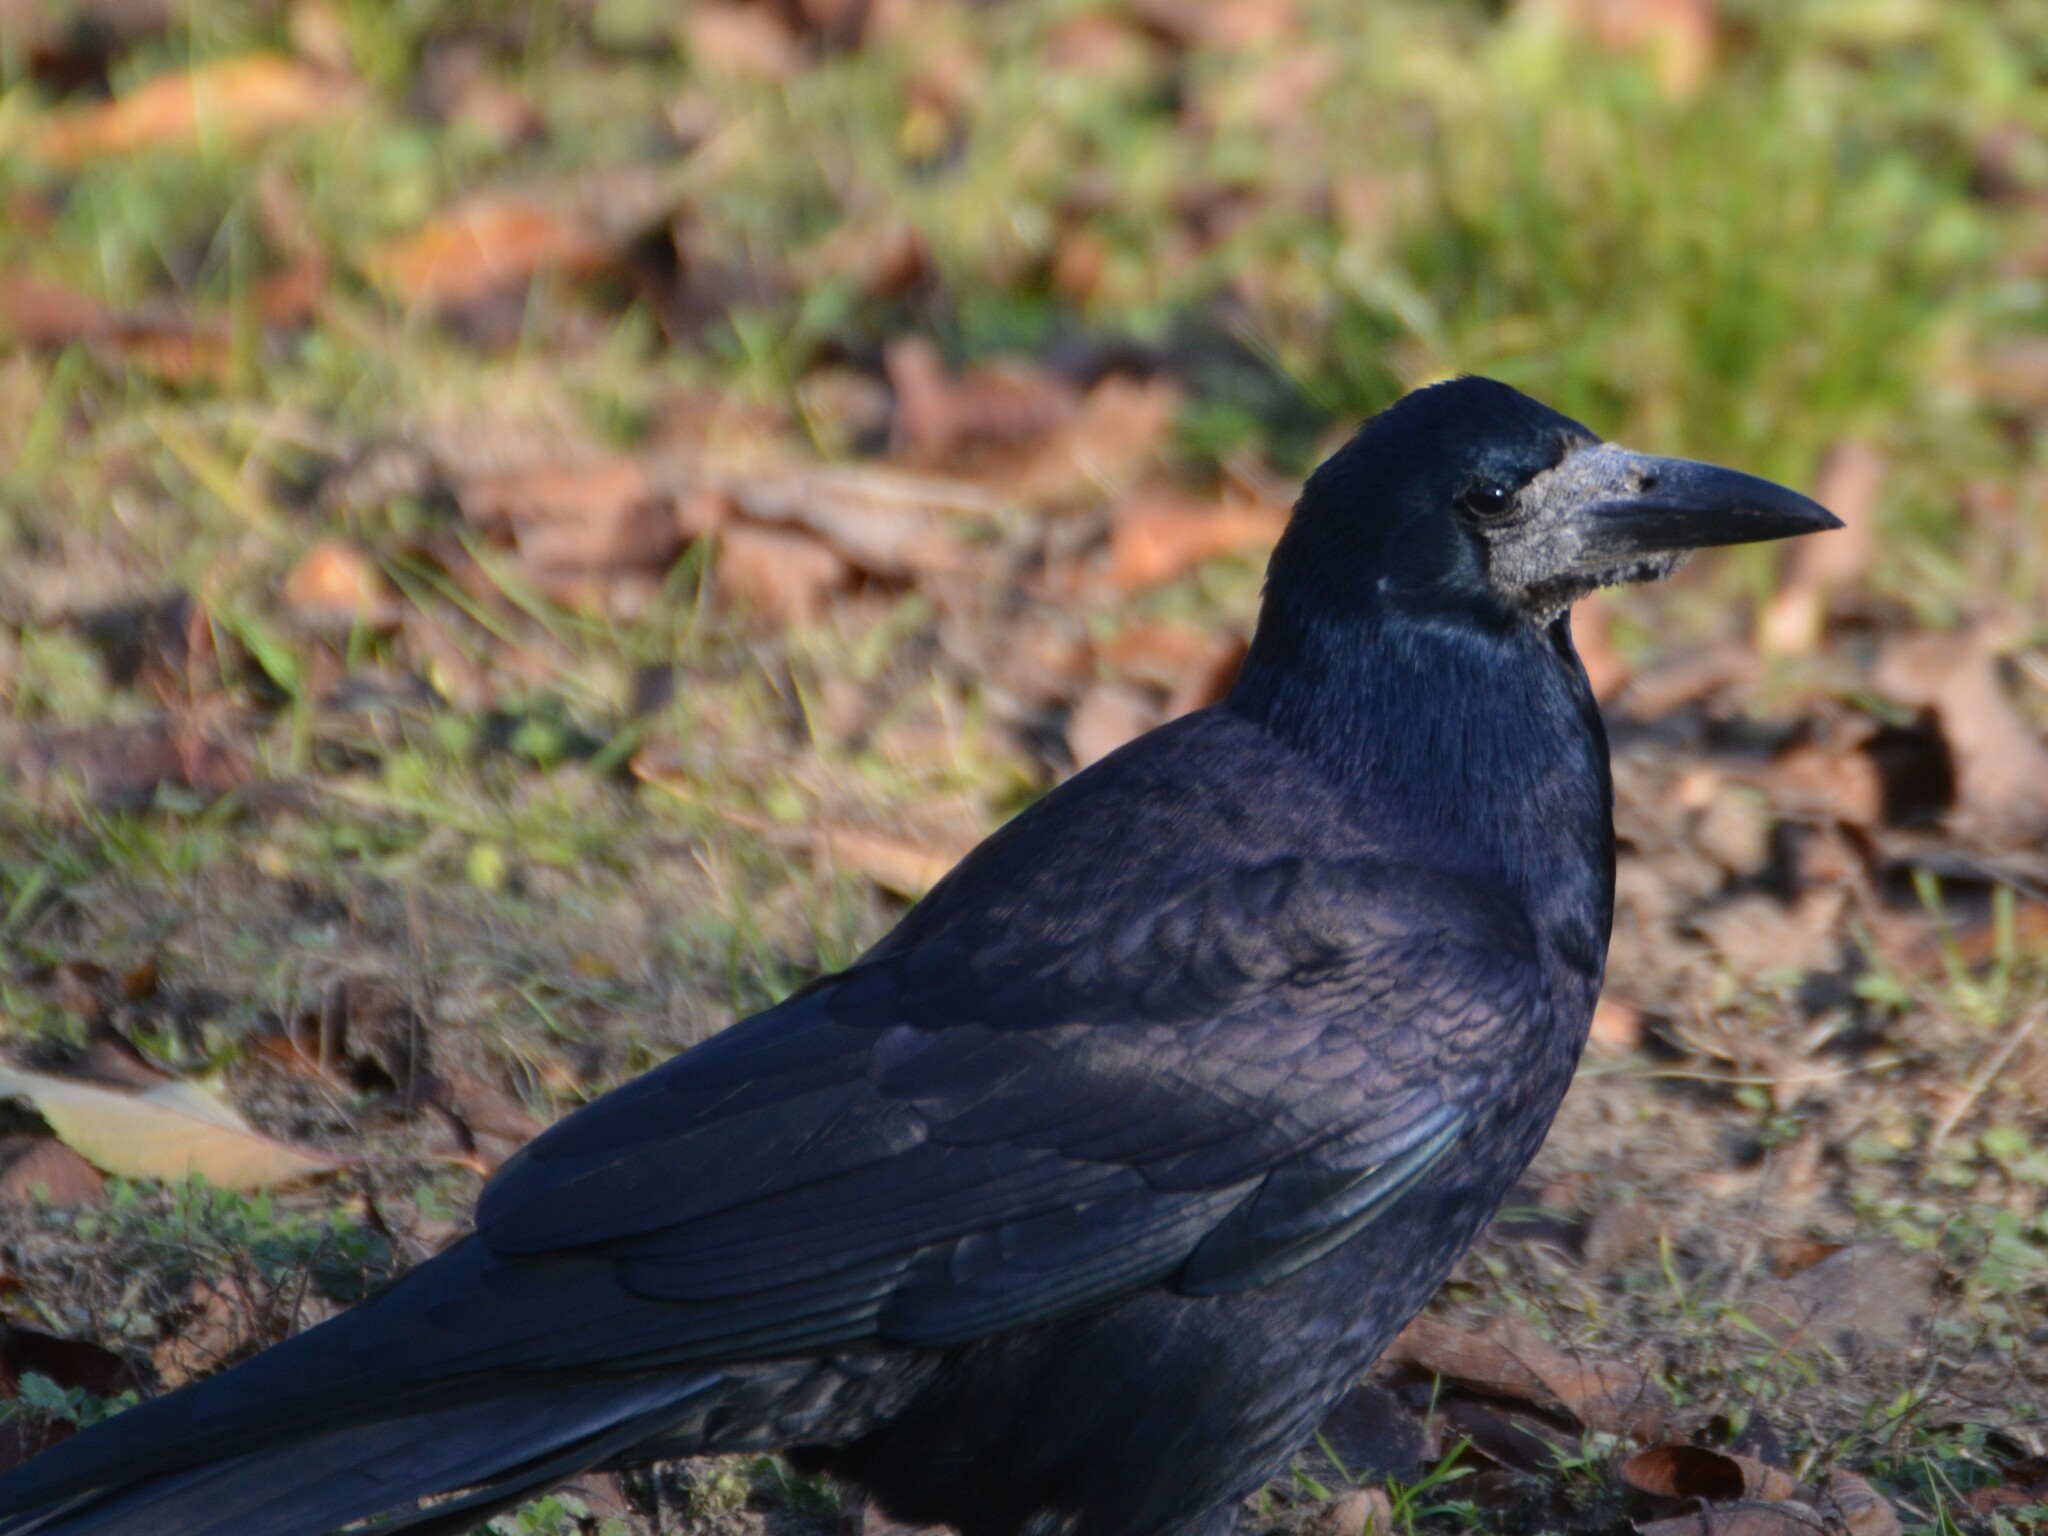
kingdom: Animalia
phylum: Chordata
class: Aves
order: Passeriformes
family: Corvidae
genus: Corvus
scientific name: Corvus frugilegus
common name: Rook
